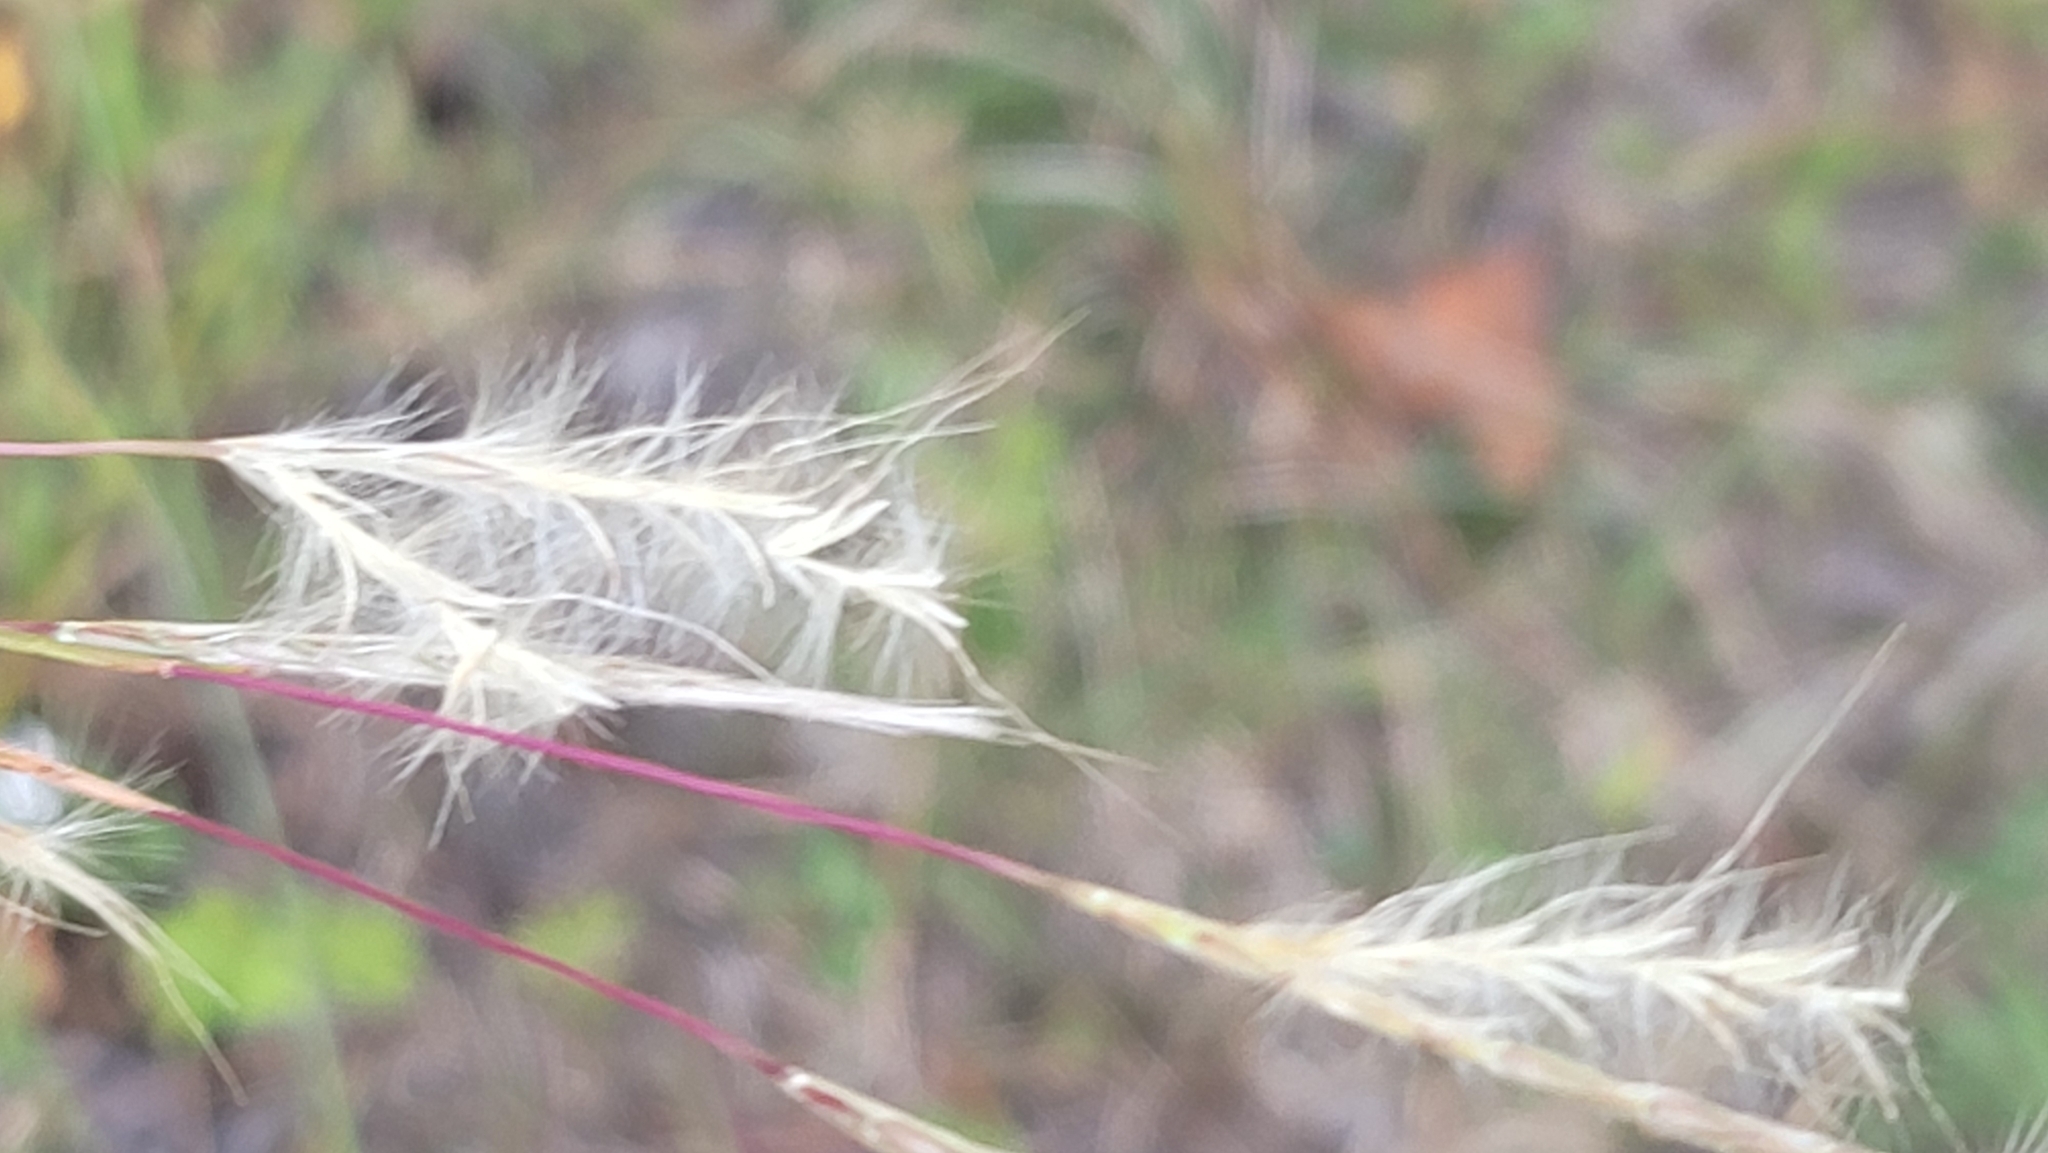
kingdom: Plantae
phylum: Tracheophyta
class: Liliopsida
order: Poales
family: Poaceae
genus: Andropogon
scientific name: Andropogon ternarius
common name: Split bluestem
